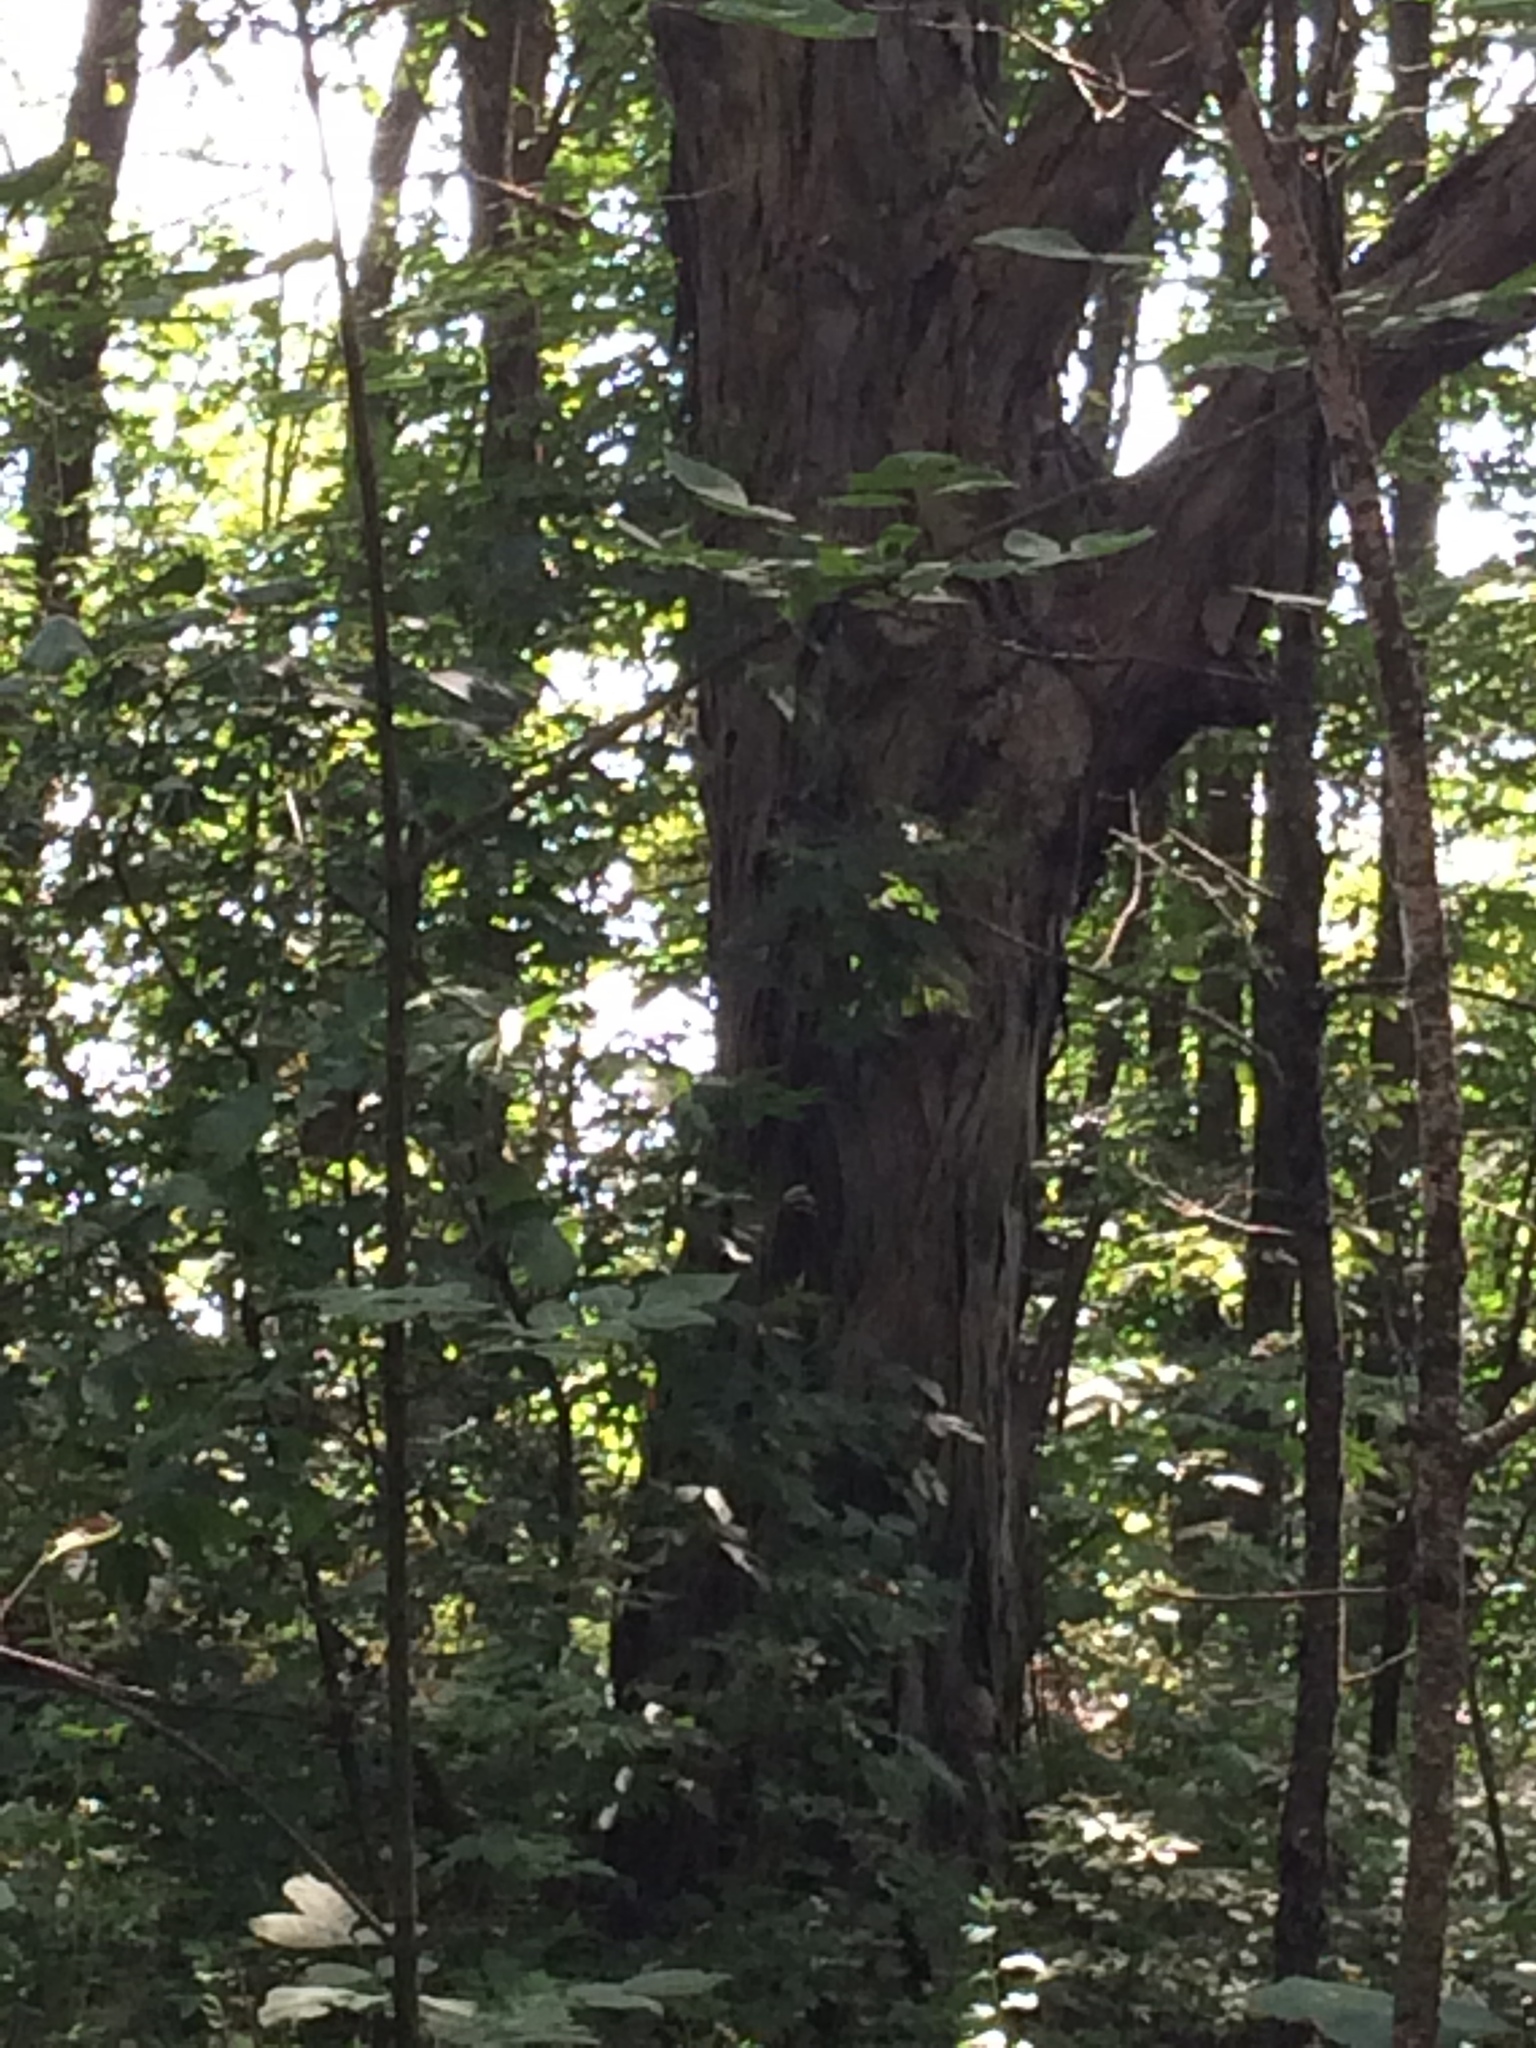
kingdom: Plantae
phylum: Tracheophyta
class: Magnoliopsida
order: Fagales
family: Juglandaceae
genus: Carya
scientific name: Carya ovata
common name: Shagbark hickory
